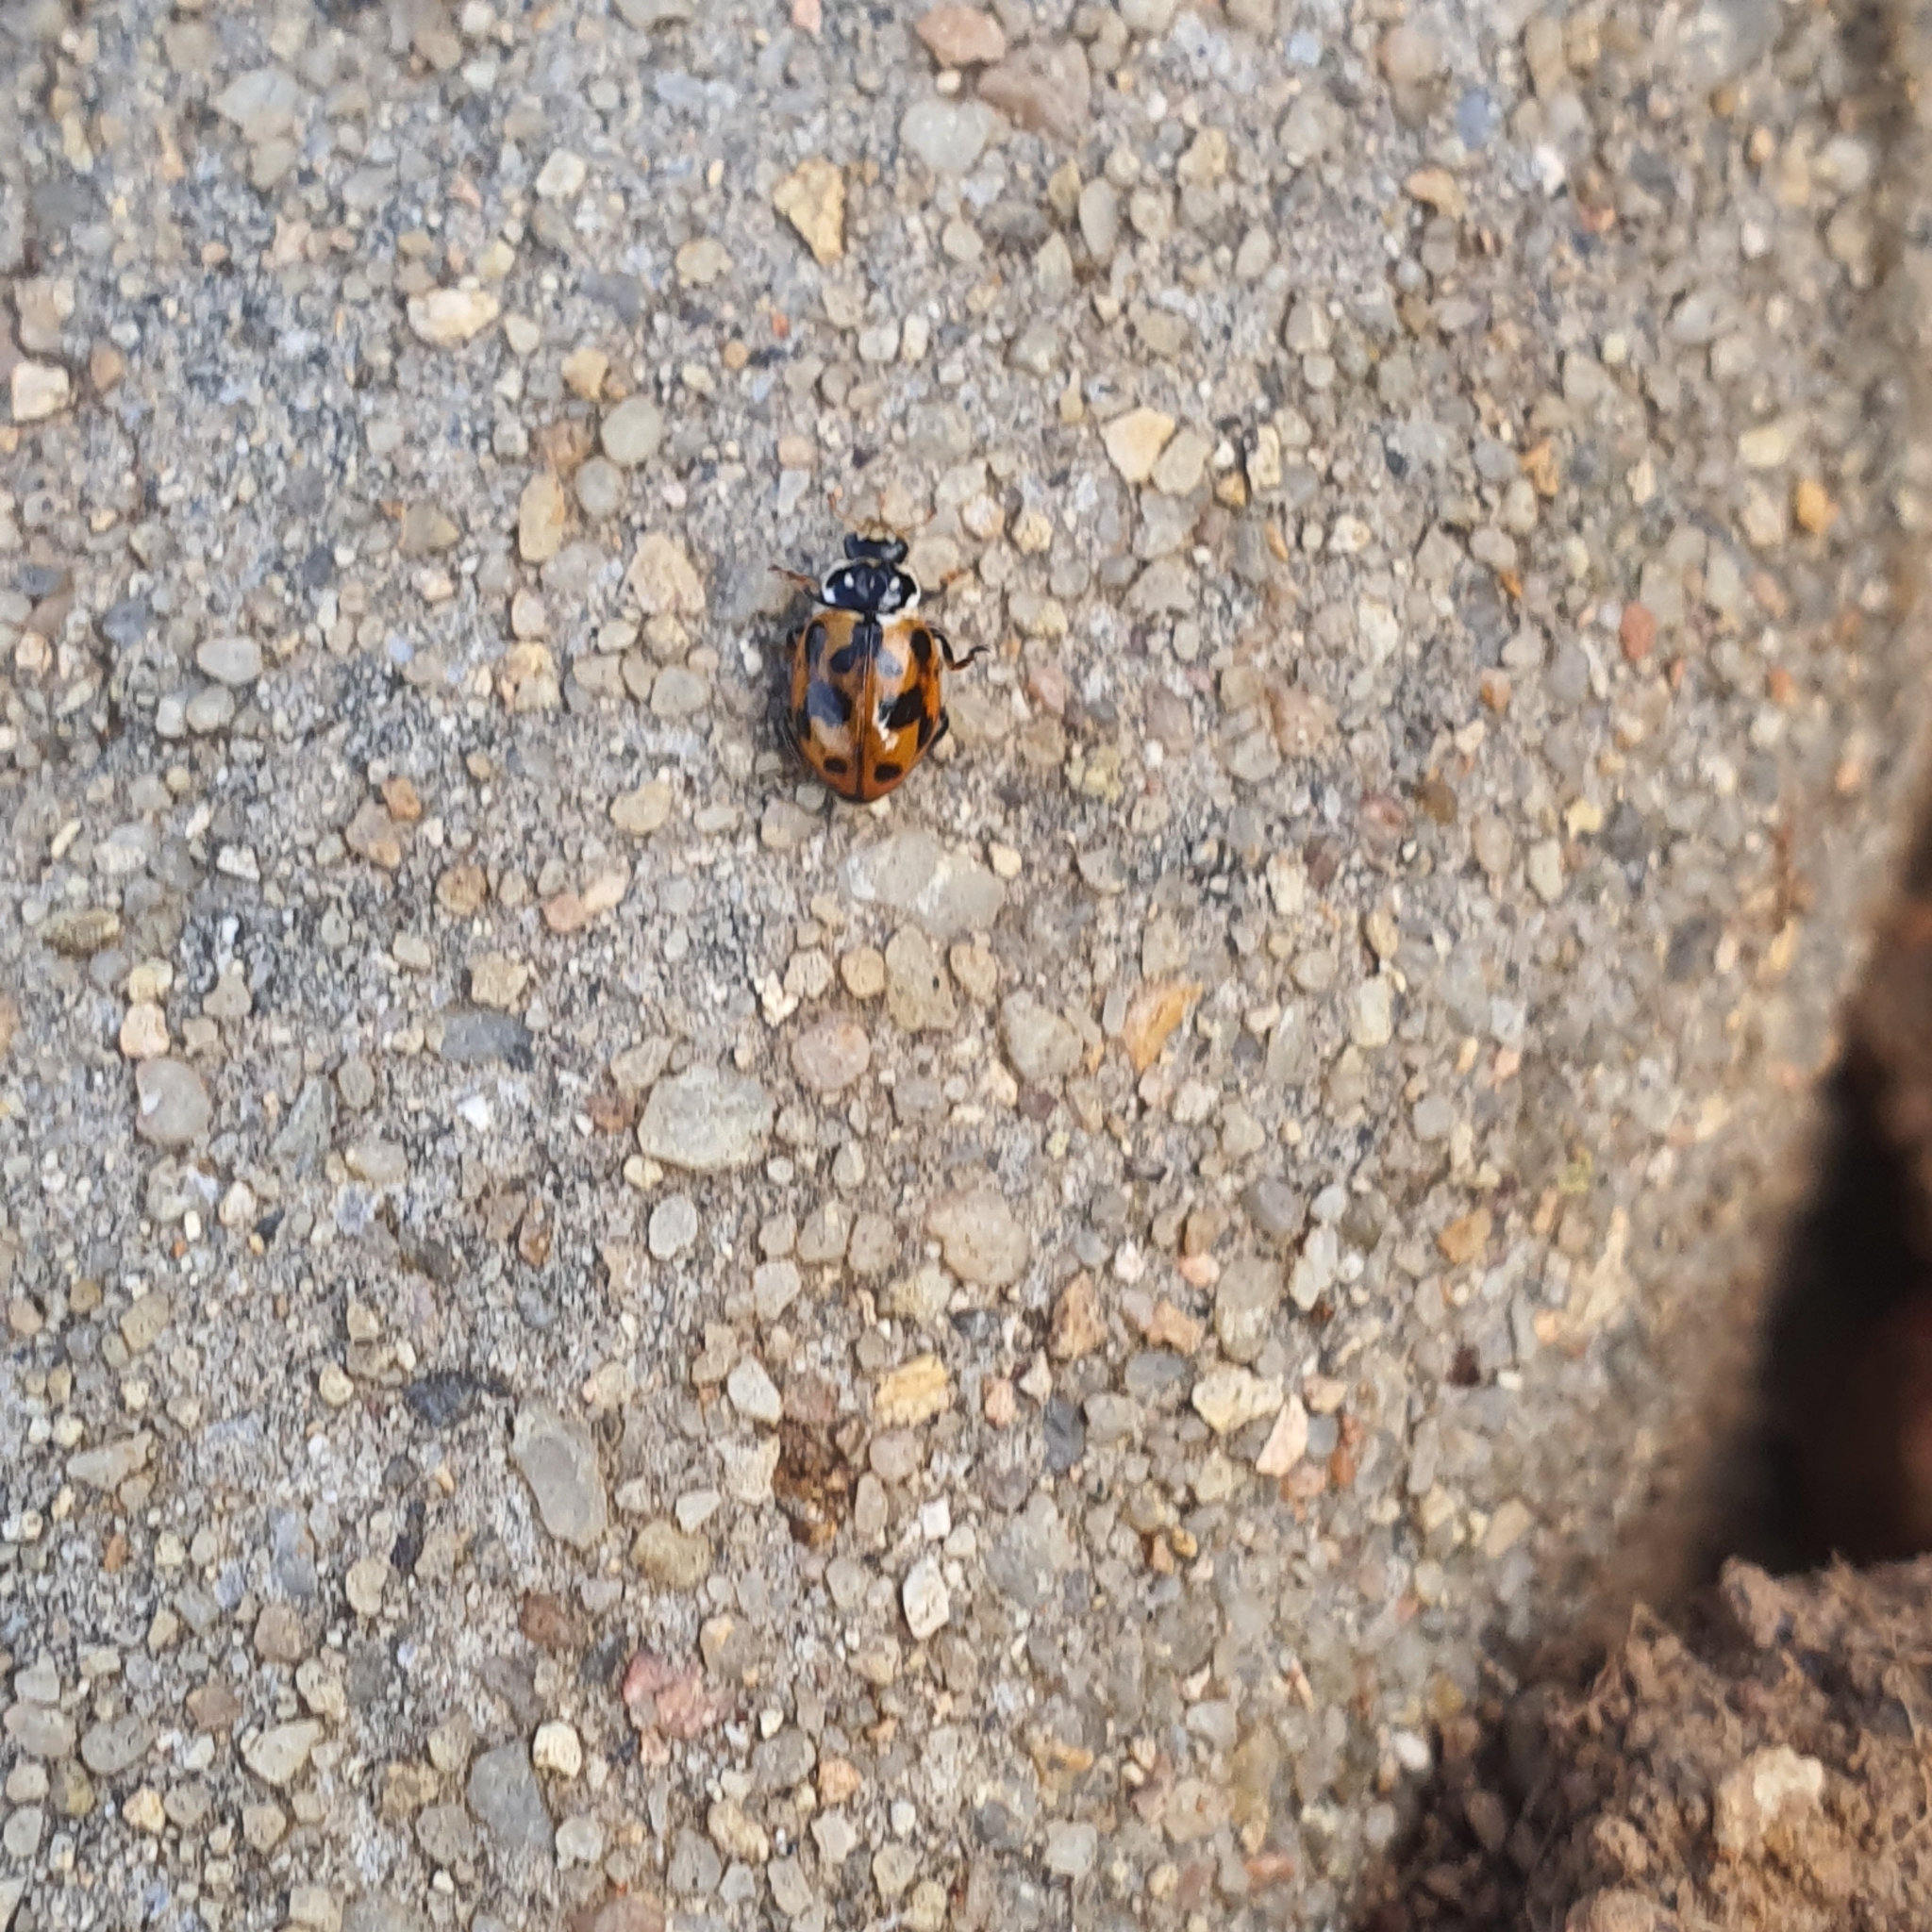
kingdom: Animalia
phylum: Arthropoda
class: Insecta
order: Coleoptera
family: Coccinellidae
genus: Hippodamia
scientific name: Hippodamia variegata
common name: Ladybird beetle
